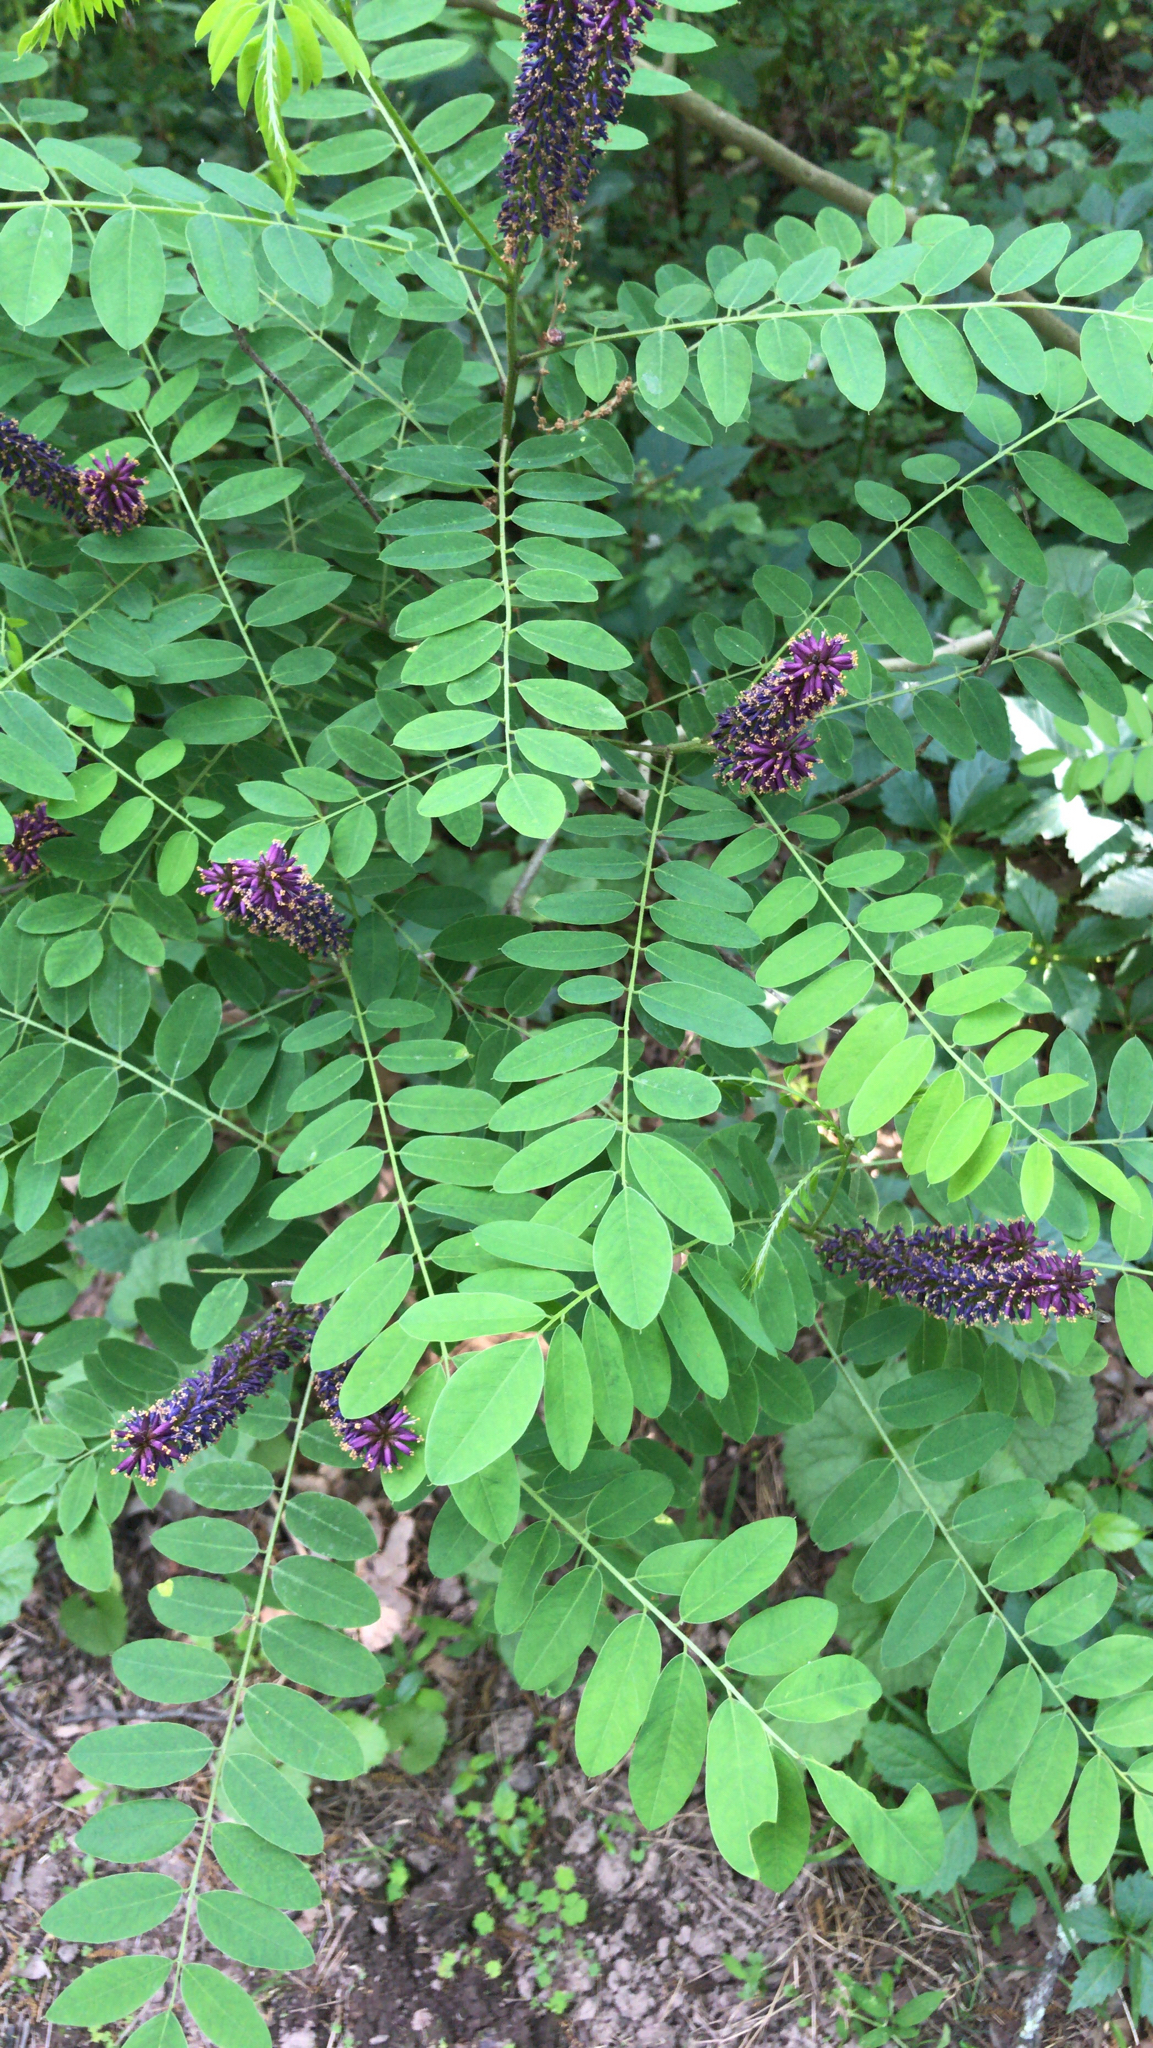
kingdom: Plantae
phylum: Tracheophyta
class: Magnoliopsida
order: Fabales
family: Fabaceae
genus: Amorpha
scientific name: Amorpha fruticosa
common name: False indigo
